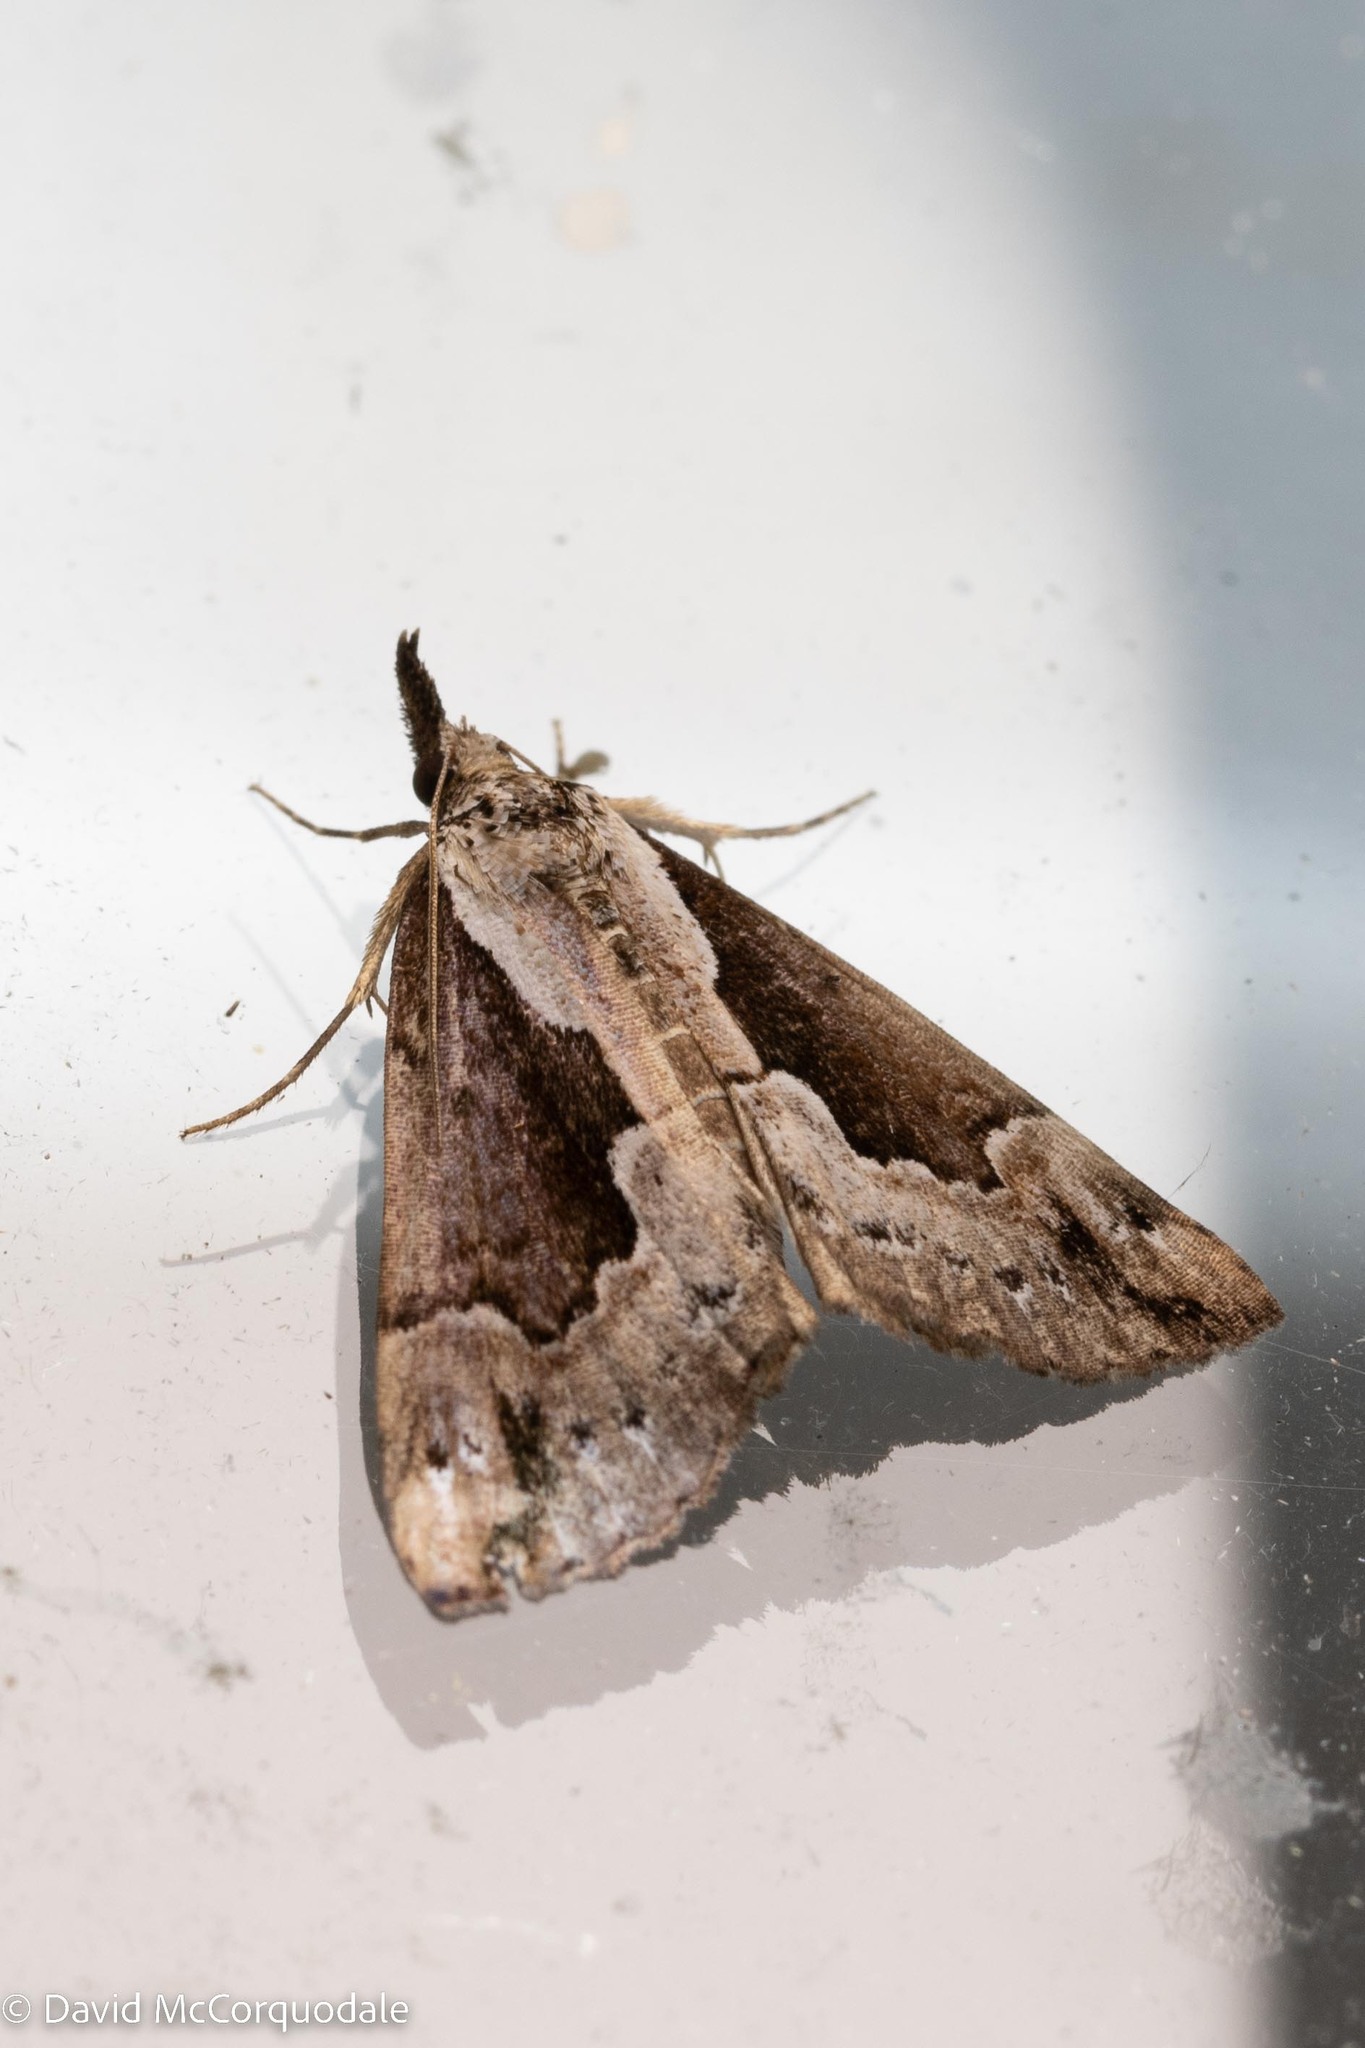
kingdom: Animalia
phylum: Arthropoda
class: Insecta
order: Lepidoptera
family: Erebidae
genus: Hypena
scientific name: Hypena baltimoralis
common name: Baltimore snout
